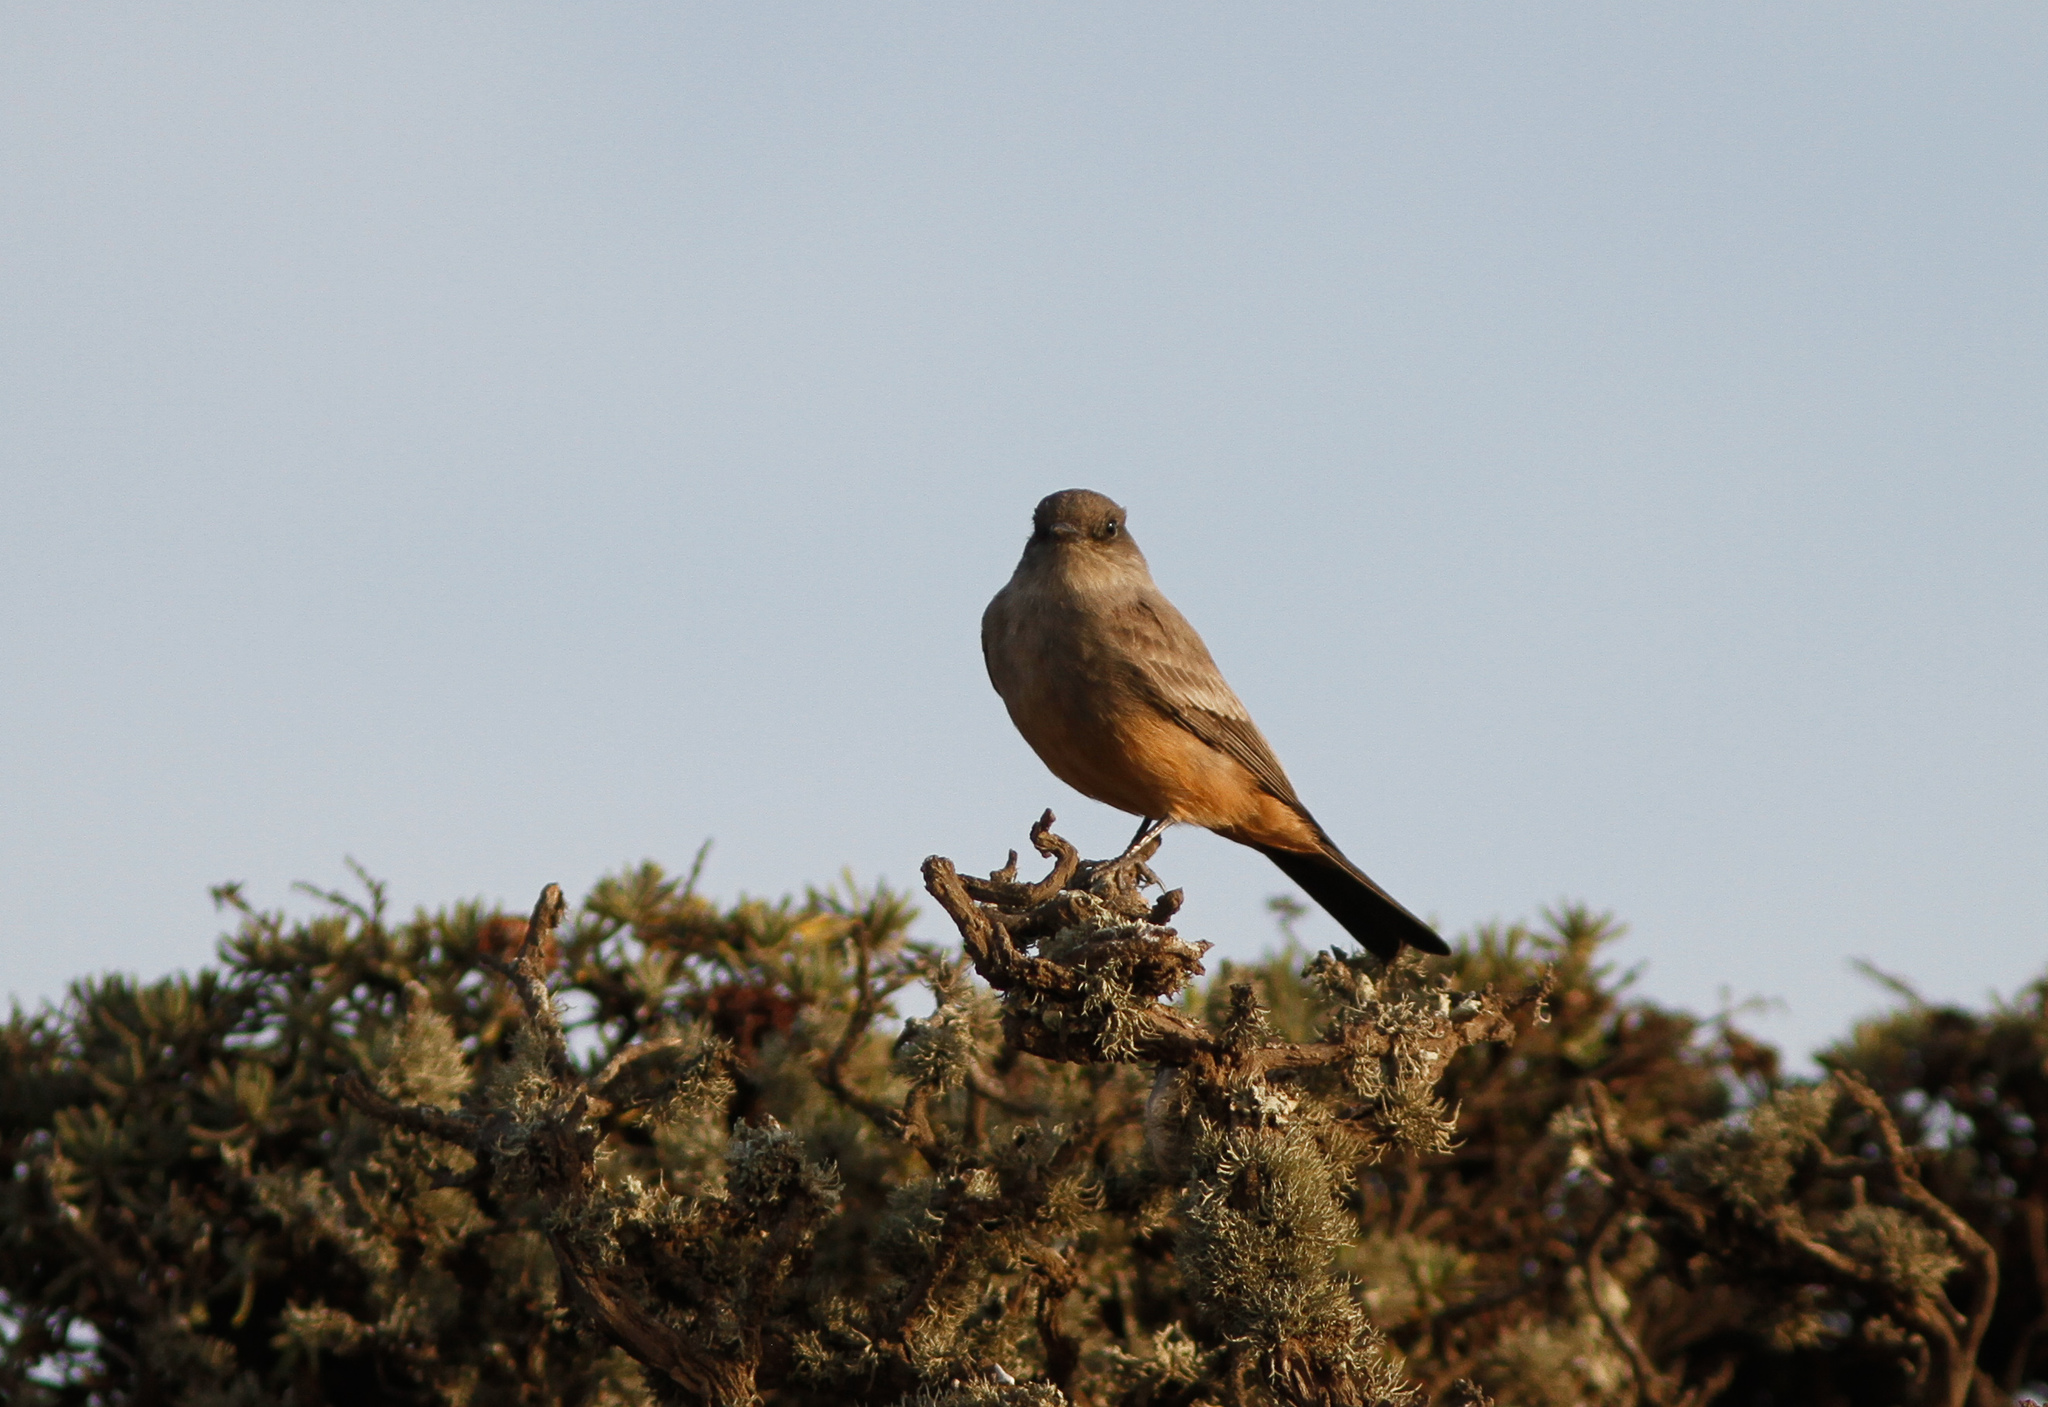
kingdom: Animalia
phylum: Chordata
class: Aves
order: Passeriformes
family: Tyrannidae
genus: Sayornis
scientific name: Sayornis saya
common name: Say's phoebe
